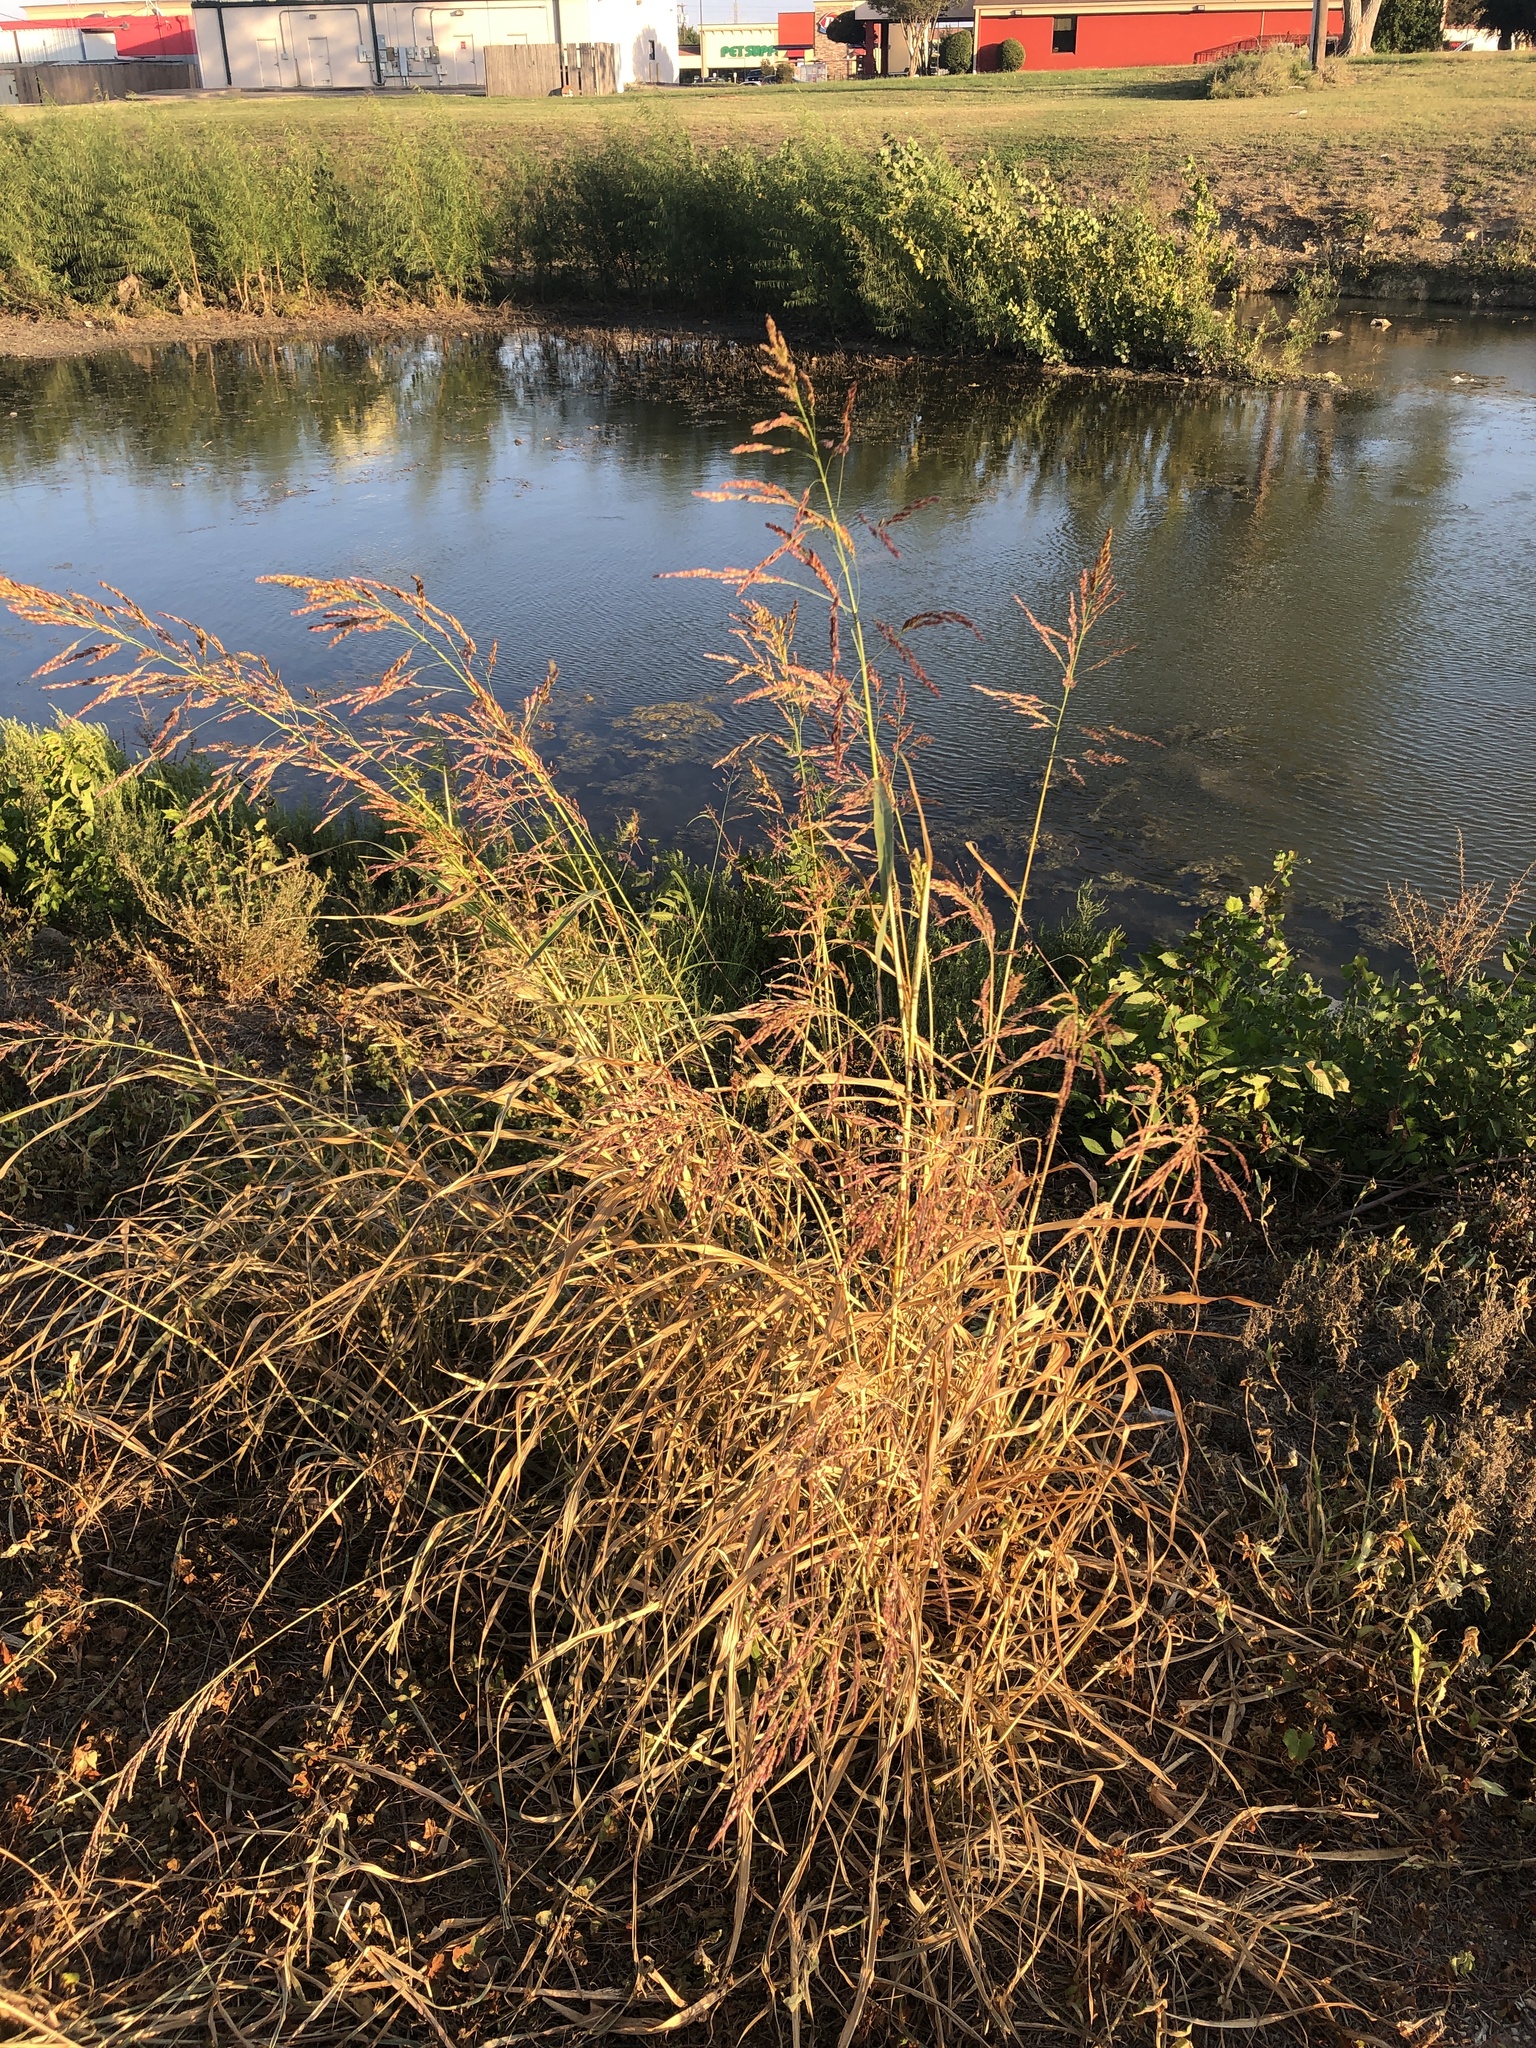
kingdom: Plantae
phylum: Tracheophyta
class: Liliopsida
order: Poales
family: Poaceae
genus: Sorghum
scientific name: Sorghum halepense
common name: Johnson-grass
